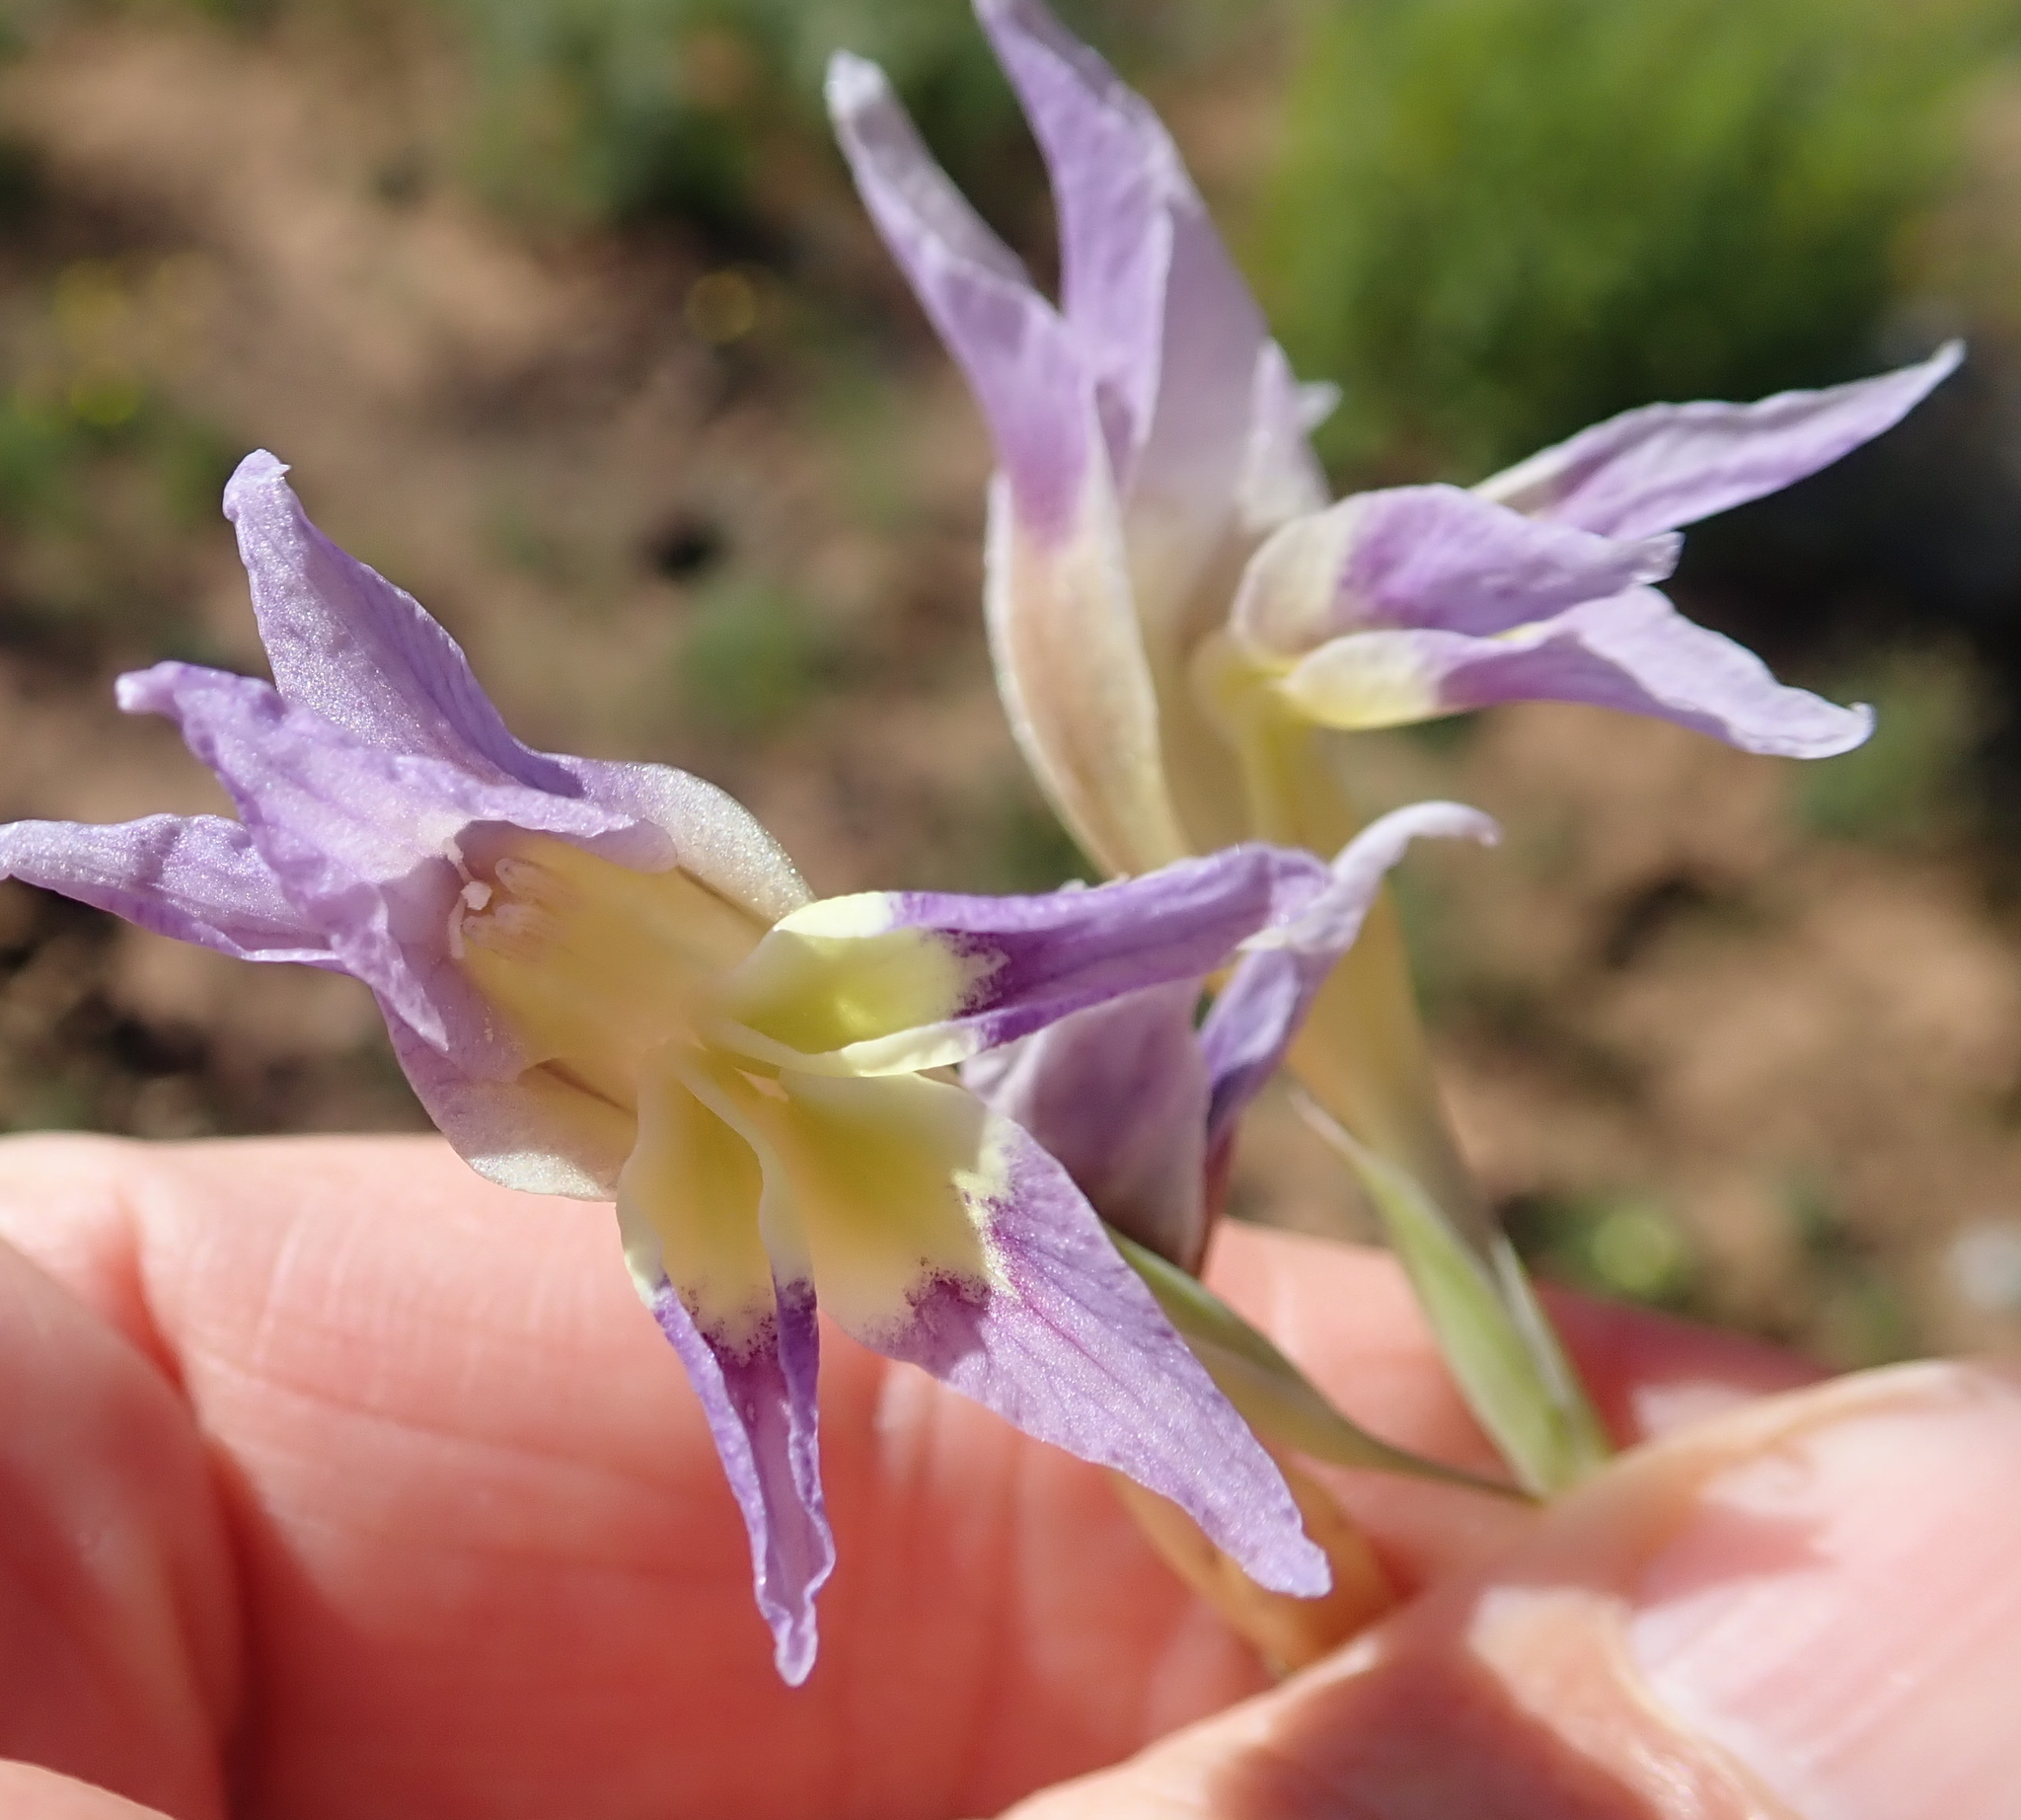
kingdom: Plantae
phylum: Tracheophyta
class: Liliopsida
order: Asparagales
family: Iridaceae
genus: Gladiolus
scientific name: Gladiolus venustus
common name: Purple kalkoentjie
